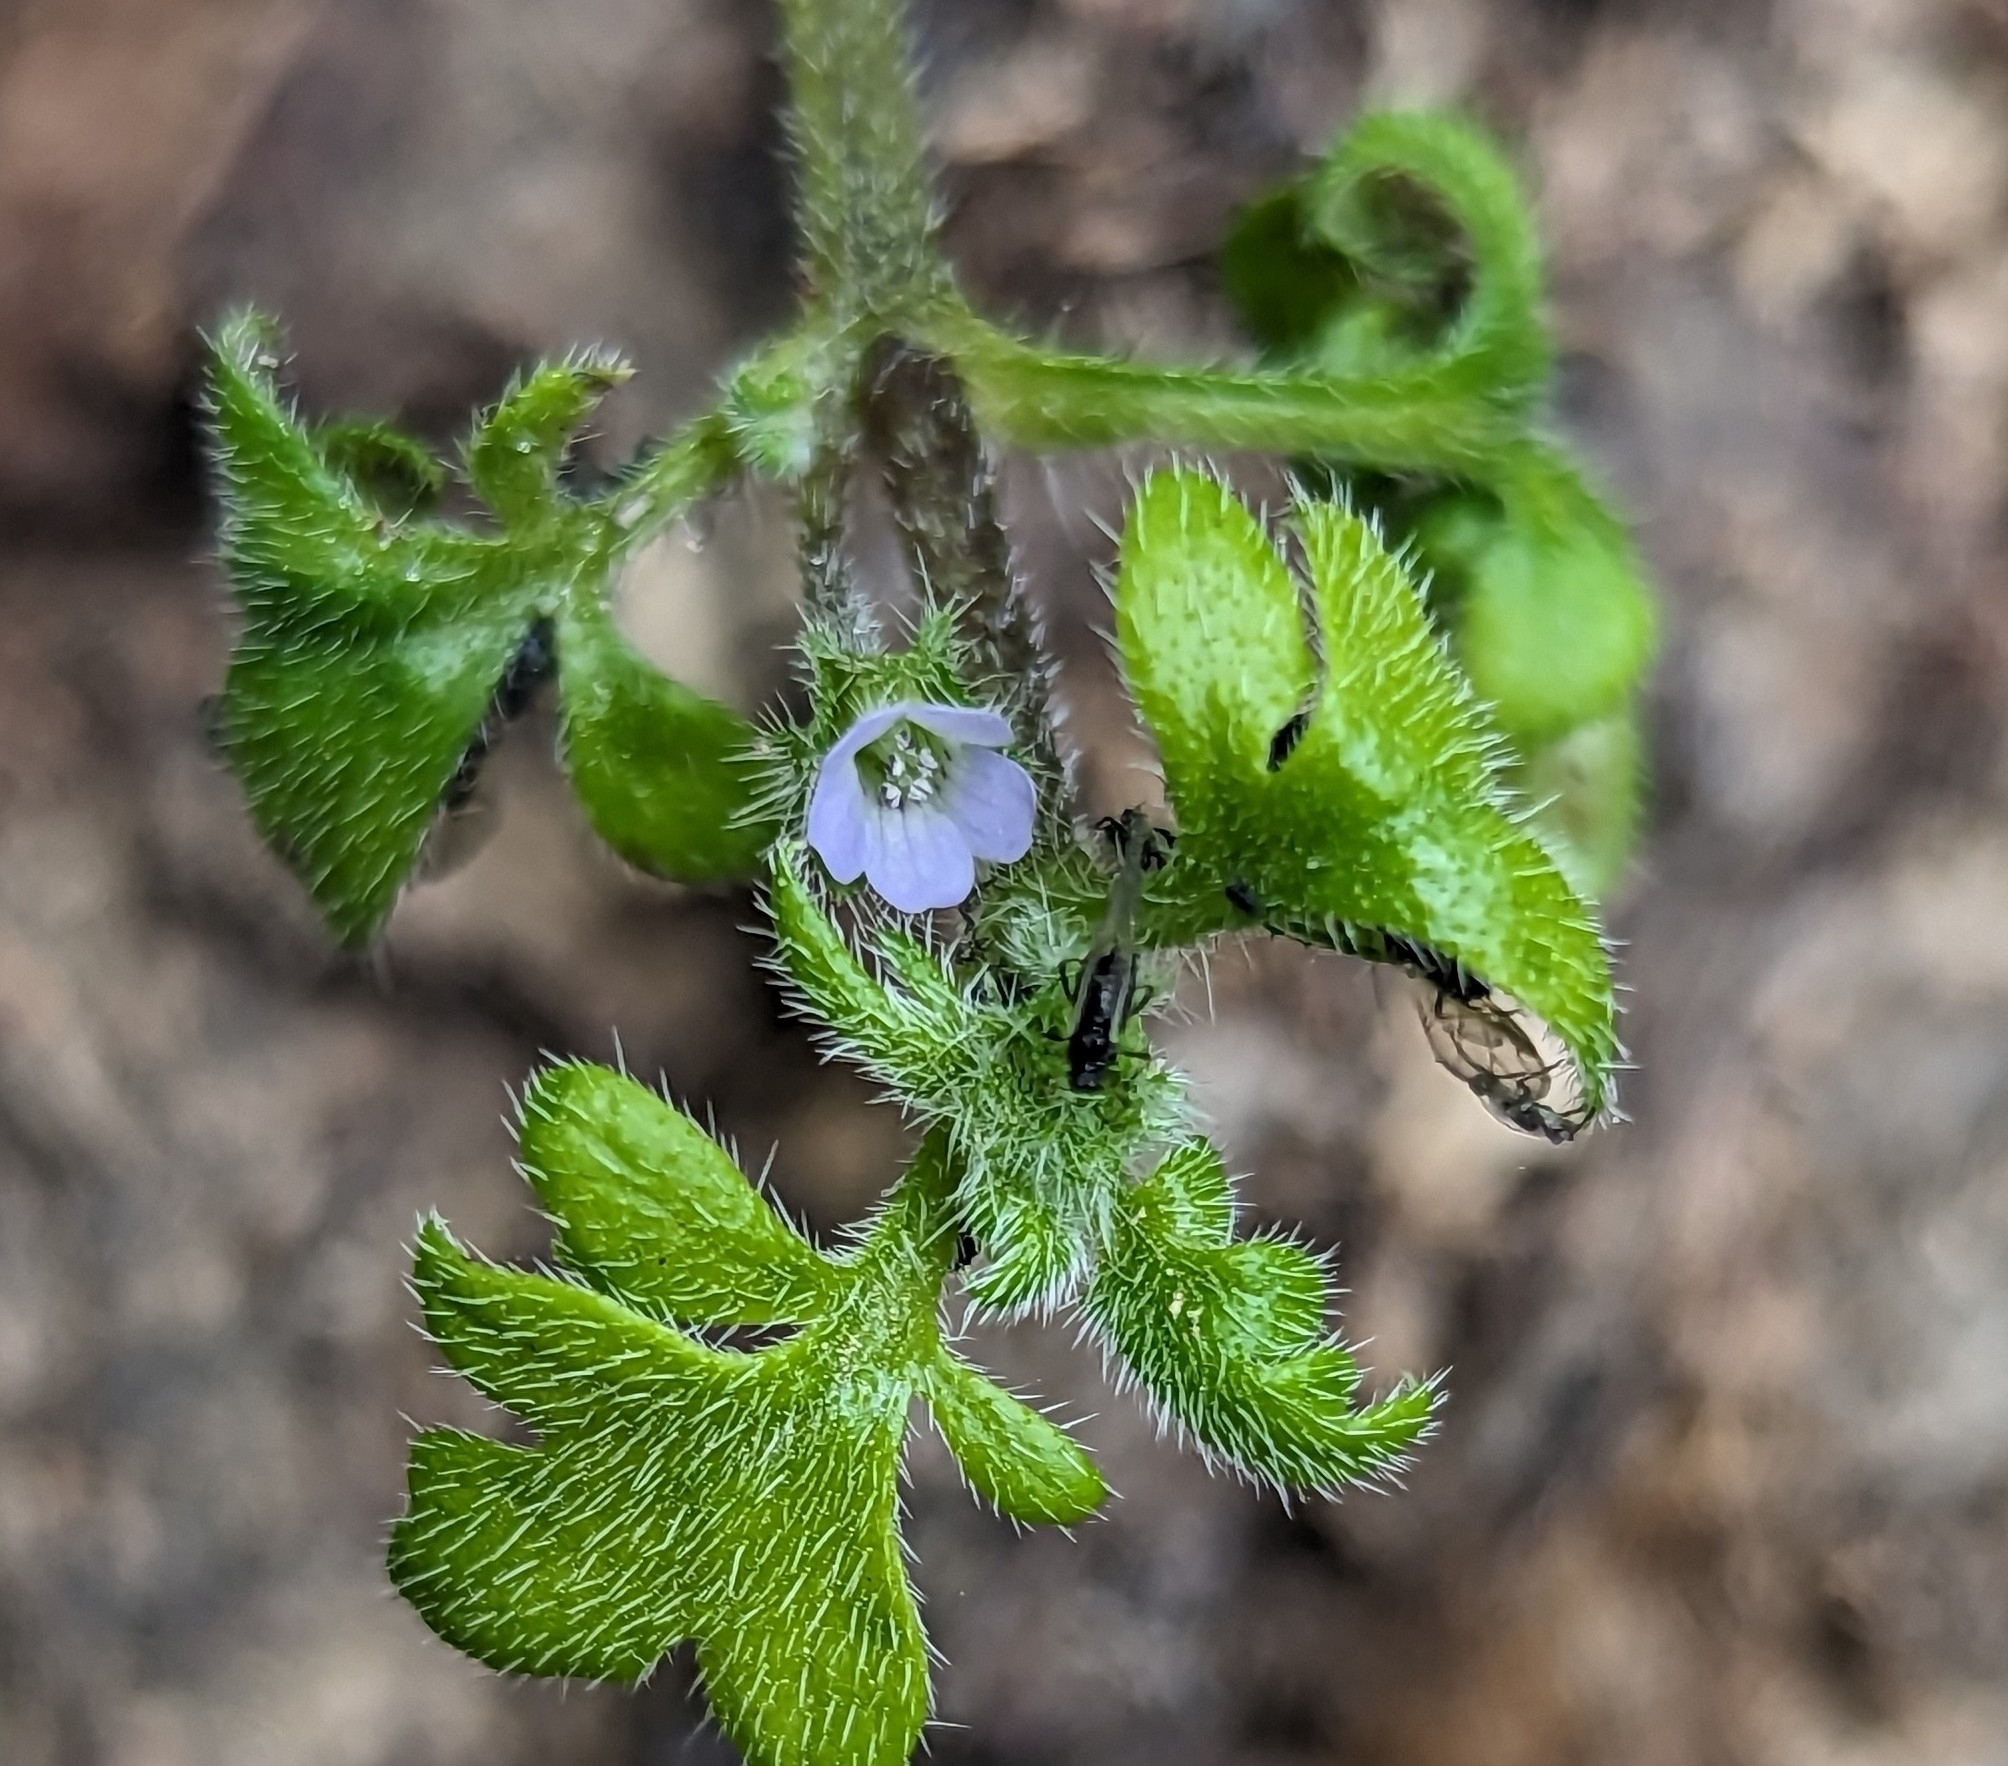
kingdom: Plantae
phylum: Tracheophyta
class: Magnoliopsida
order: Boraginales
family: Hydrophyllaceae
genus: Nemophila
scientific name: Nemophila parviflora
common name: Small-flowered baby-blue-eyes
